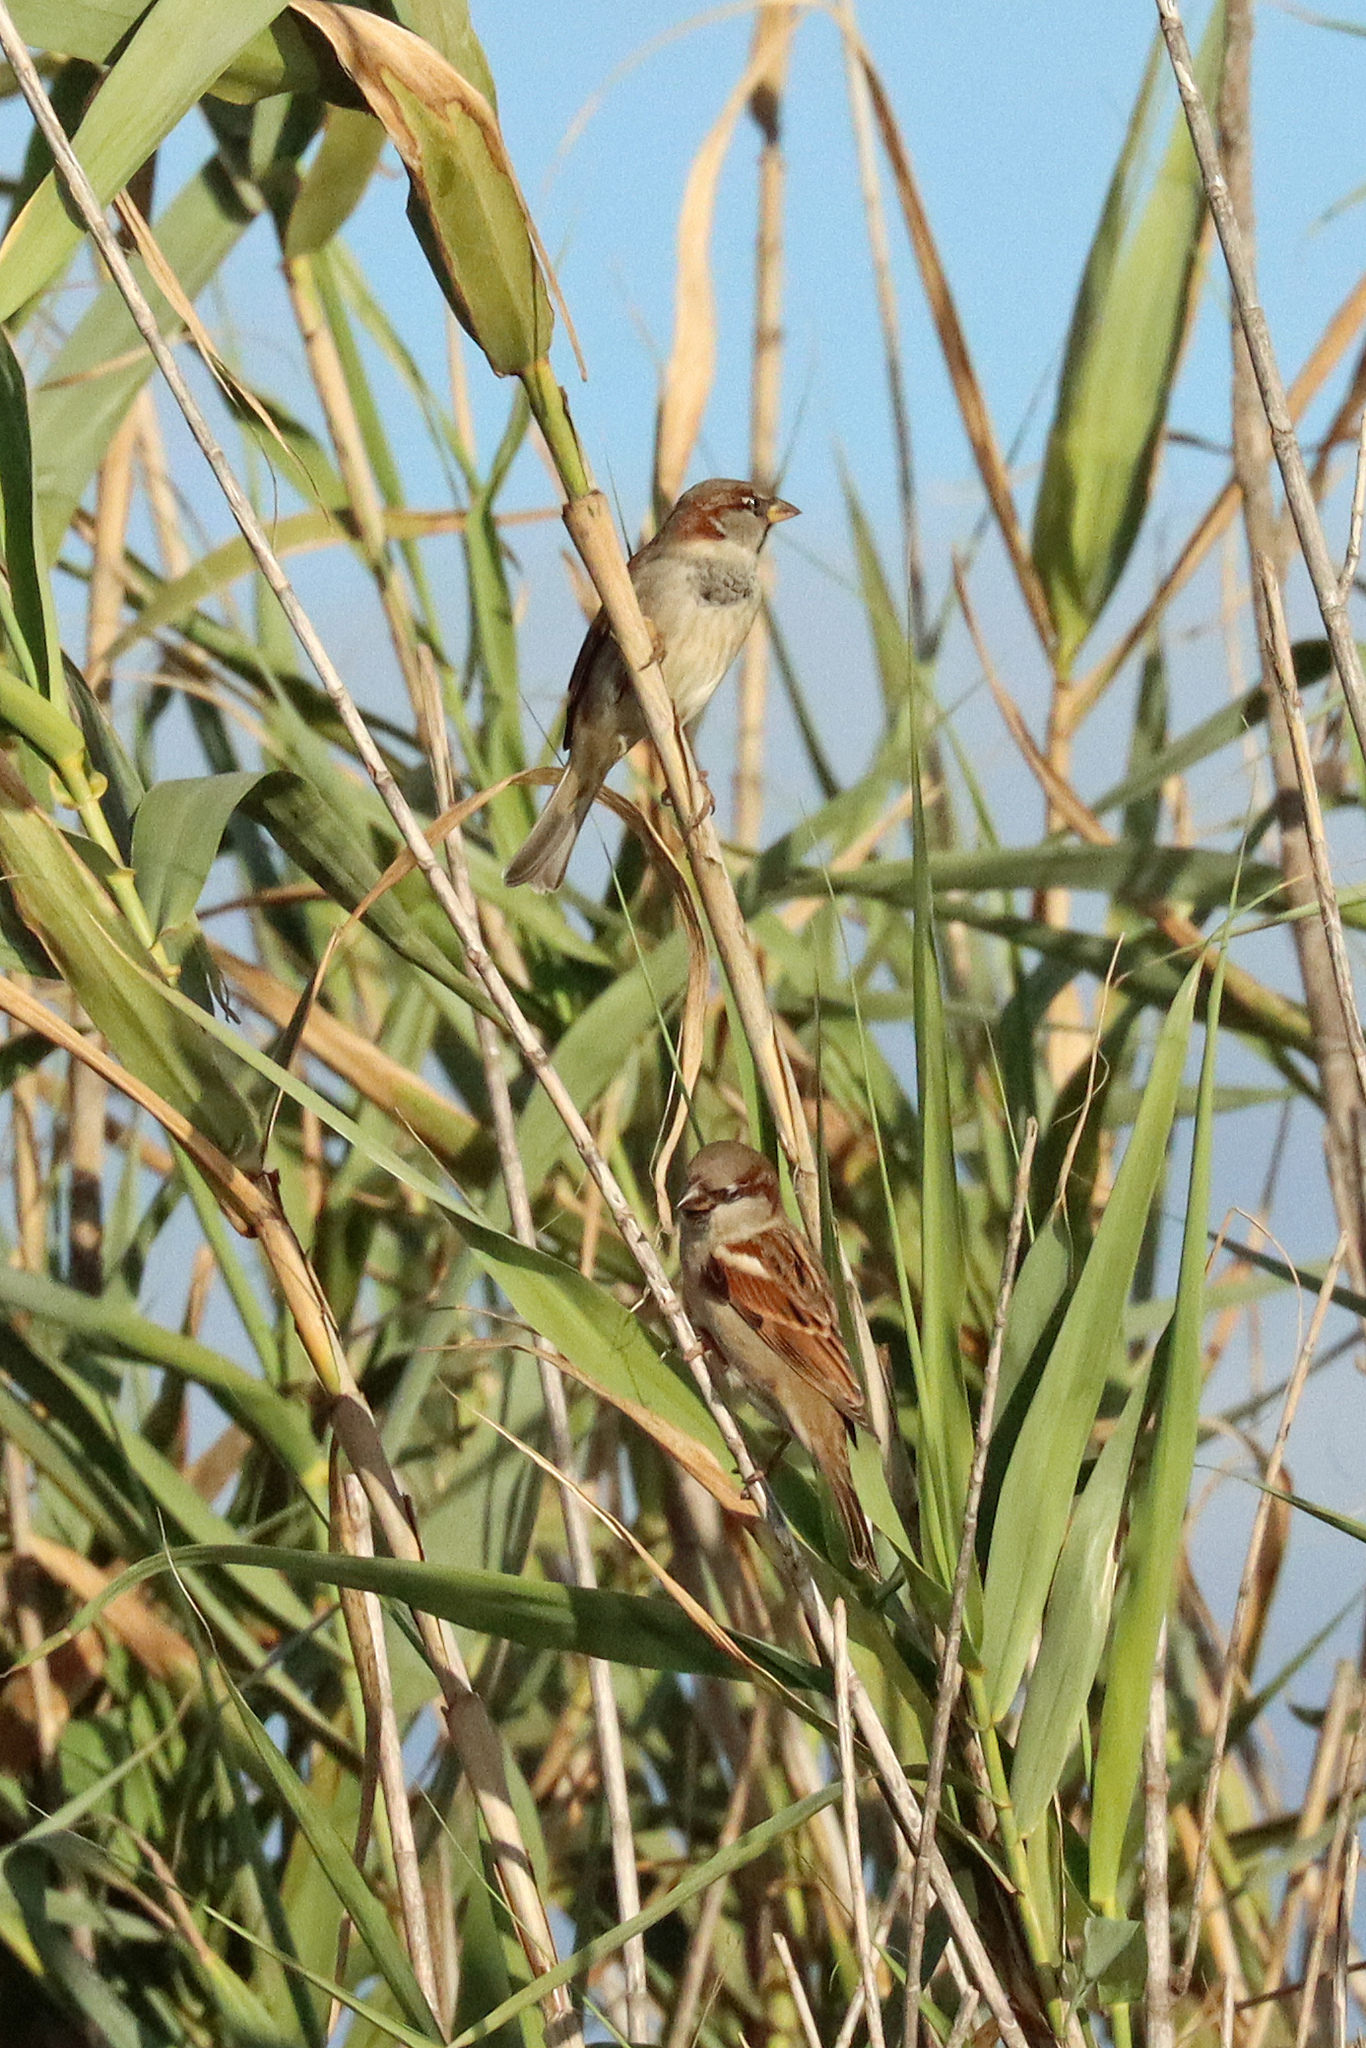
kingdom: Animalia
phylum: Chordata
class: Aves
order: Passeriformes
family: Passeridae
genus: Passer
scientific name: Passer domesticus
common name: House sparrow
